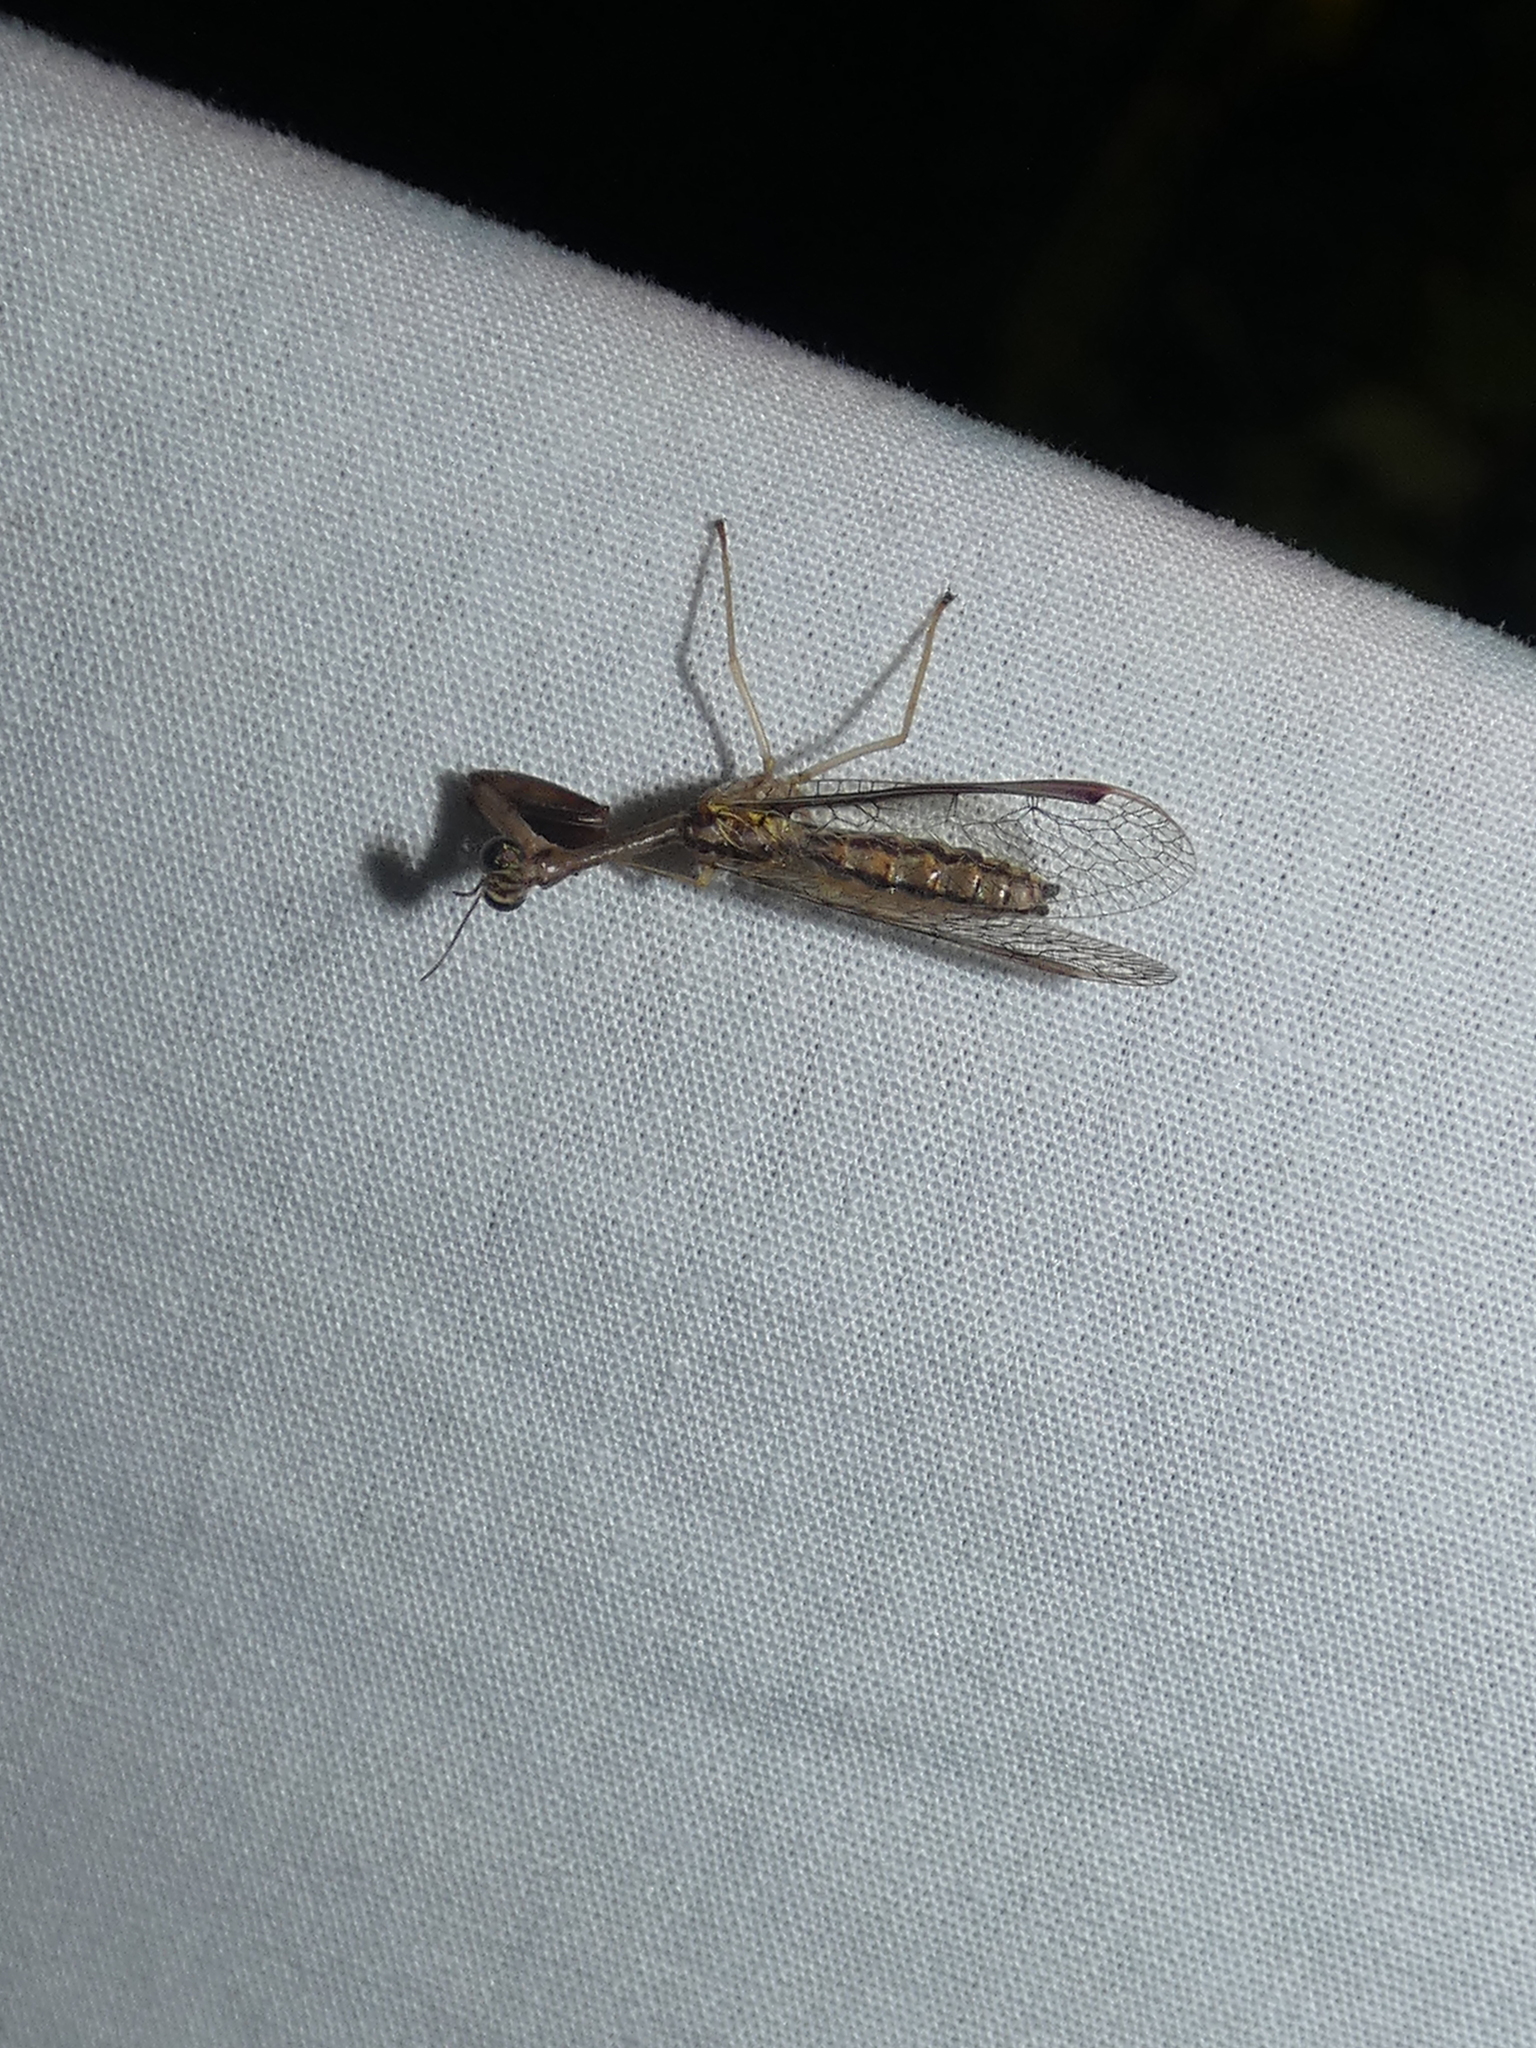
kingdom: Animalia
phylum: Arthropoda
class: Insecta
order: Neuroptera
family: Mantispidae
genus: Dicromantispa
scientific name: Dicromantispa sayi
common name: Say's mantidfly
